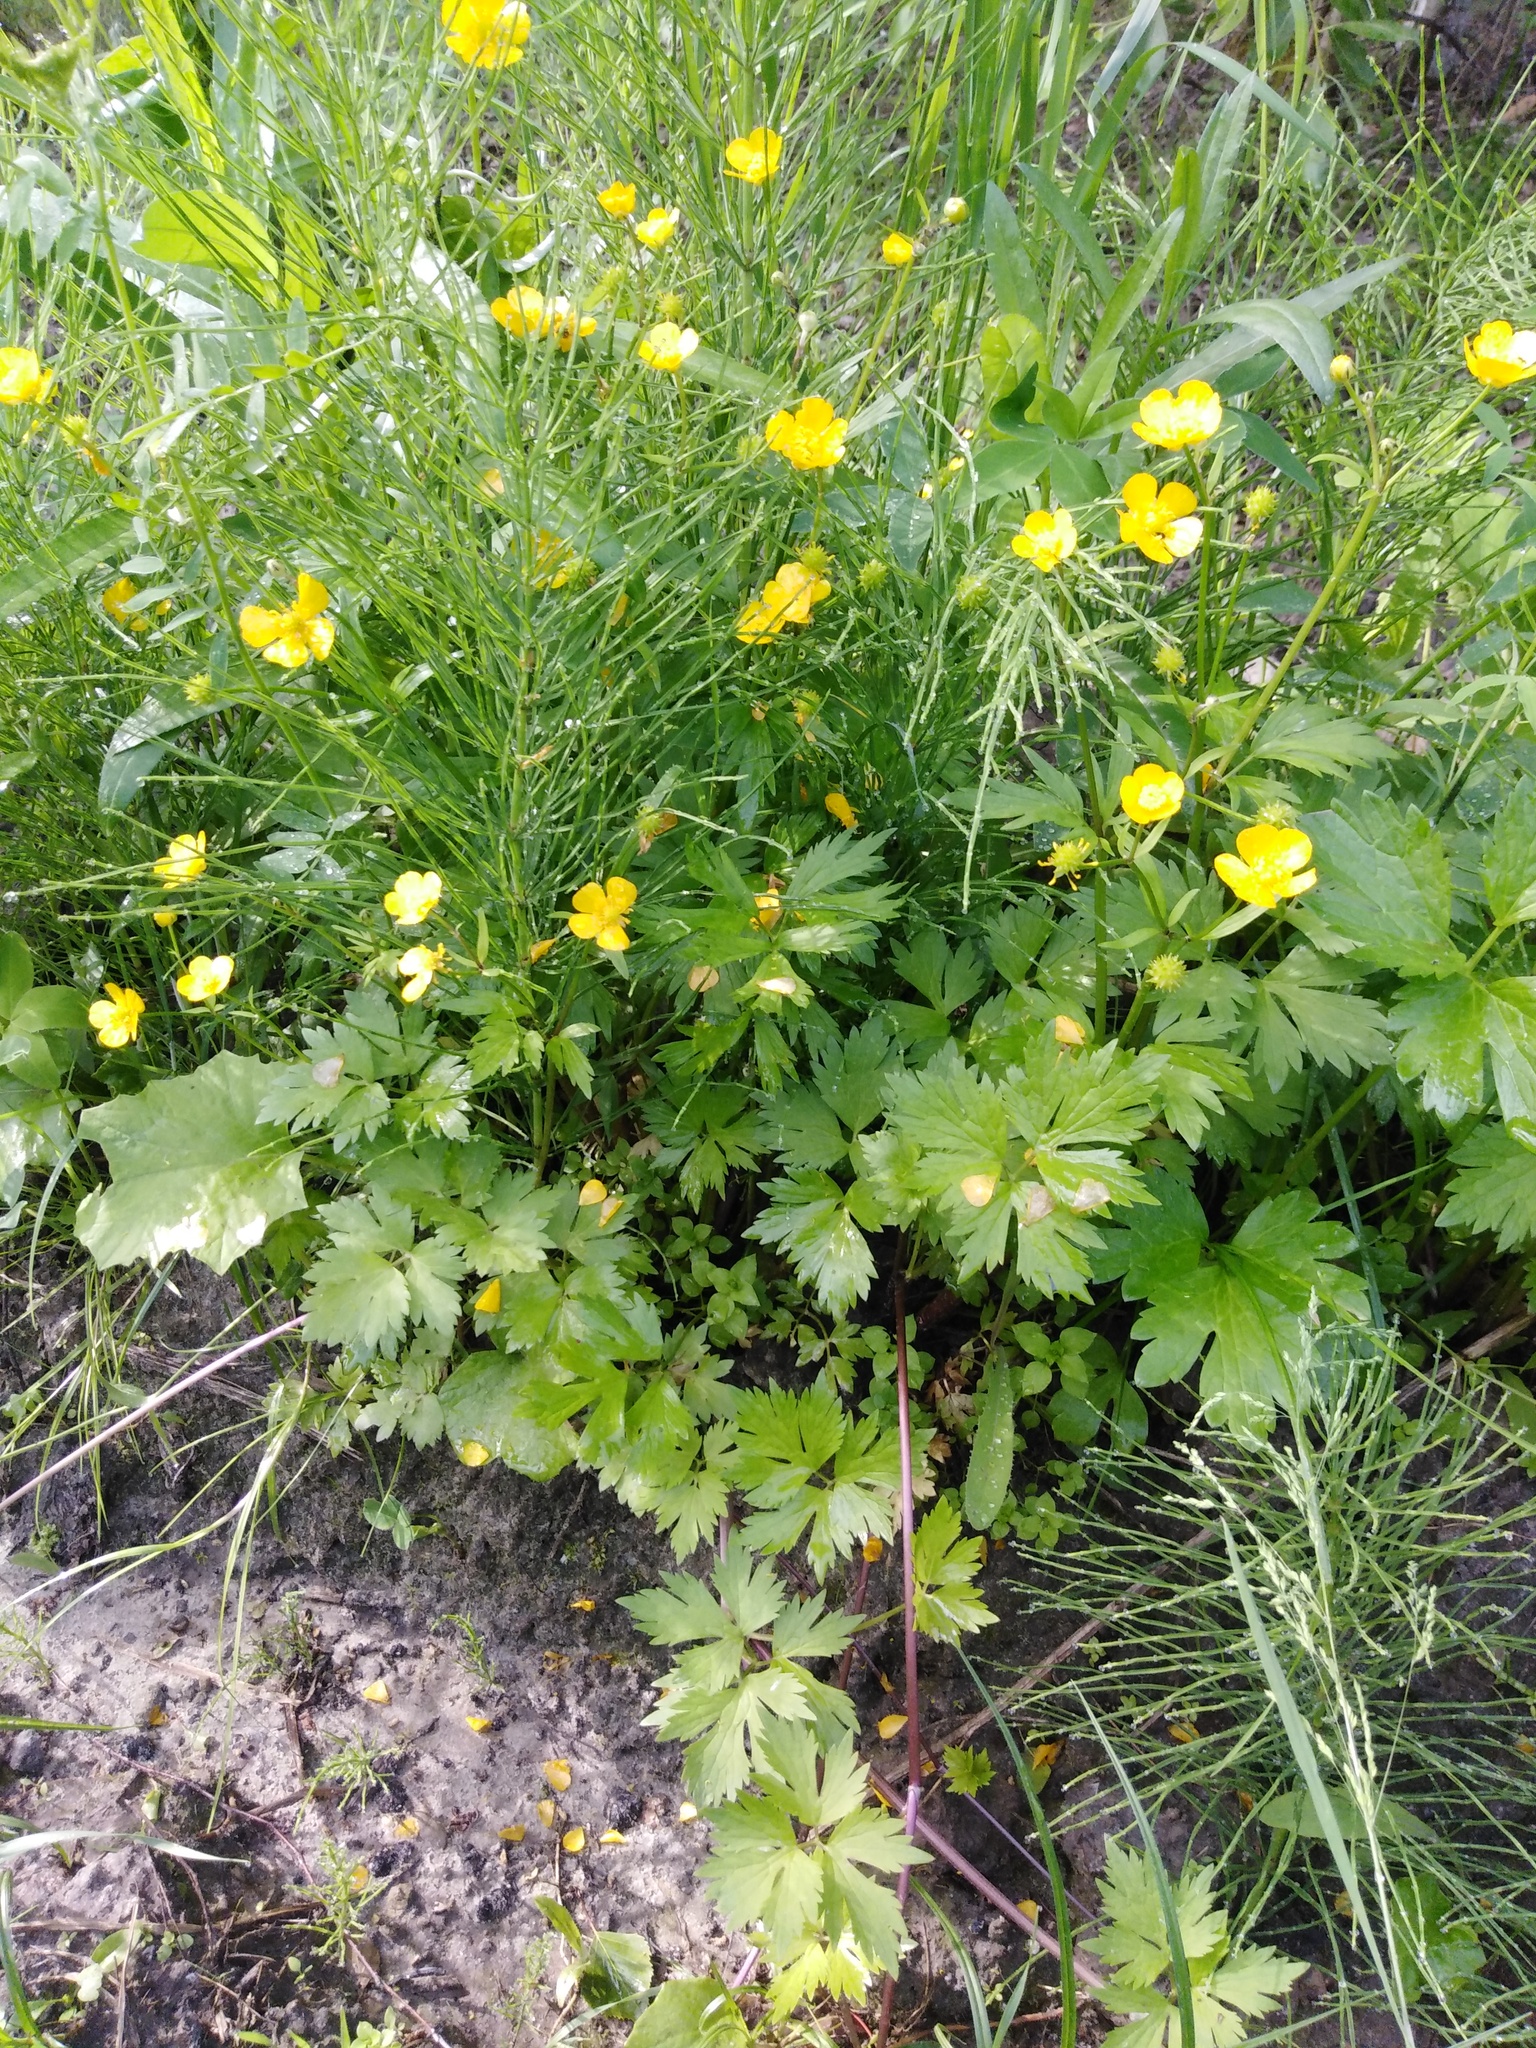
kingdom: Plantae
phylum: Tracheophyta
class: Magnoliopsida
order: Ranunculales
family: Ranunculaceae
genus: Ranunculus
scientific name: Ranunculus repens
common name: Creeping buttercup
